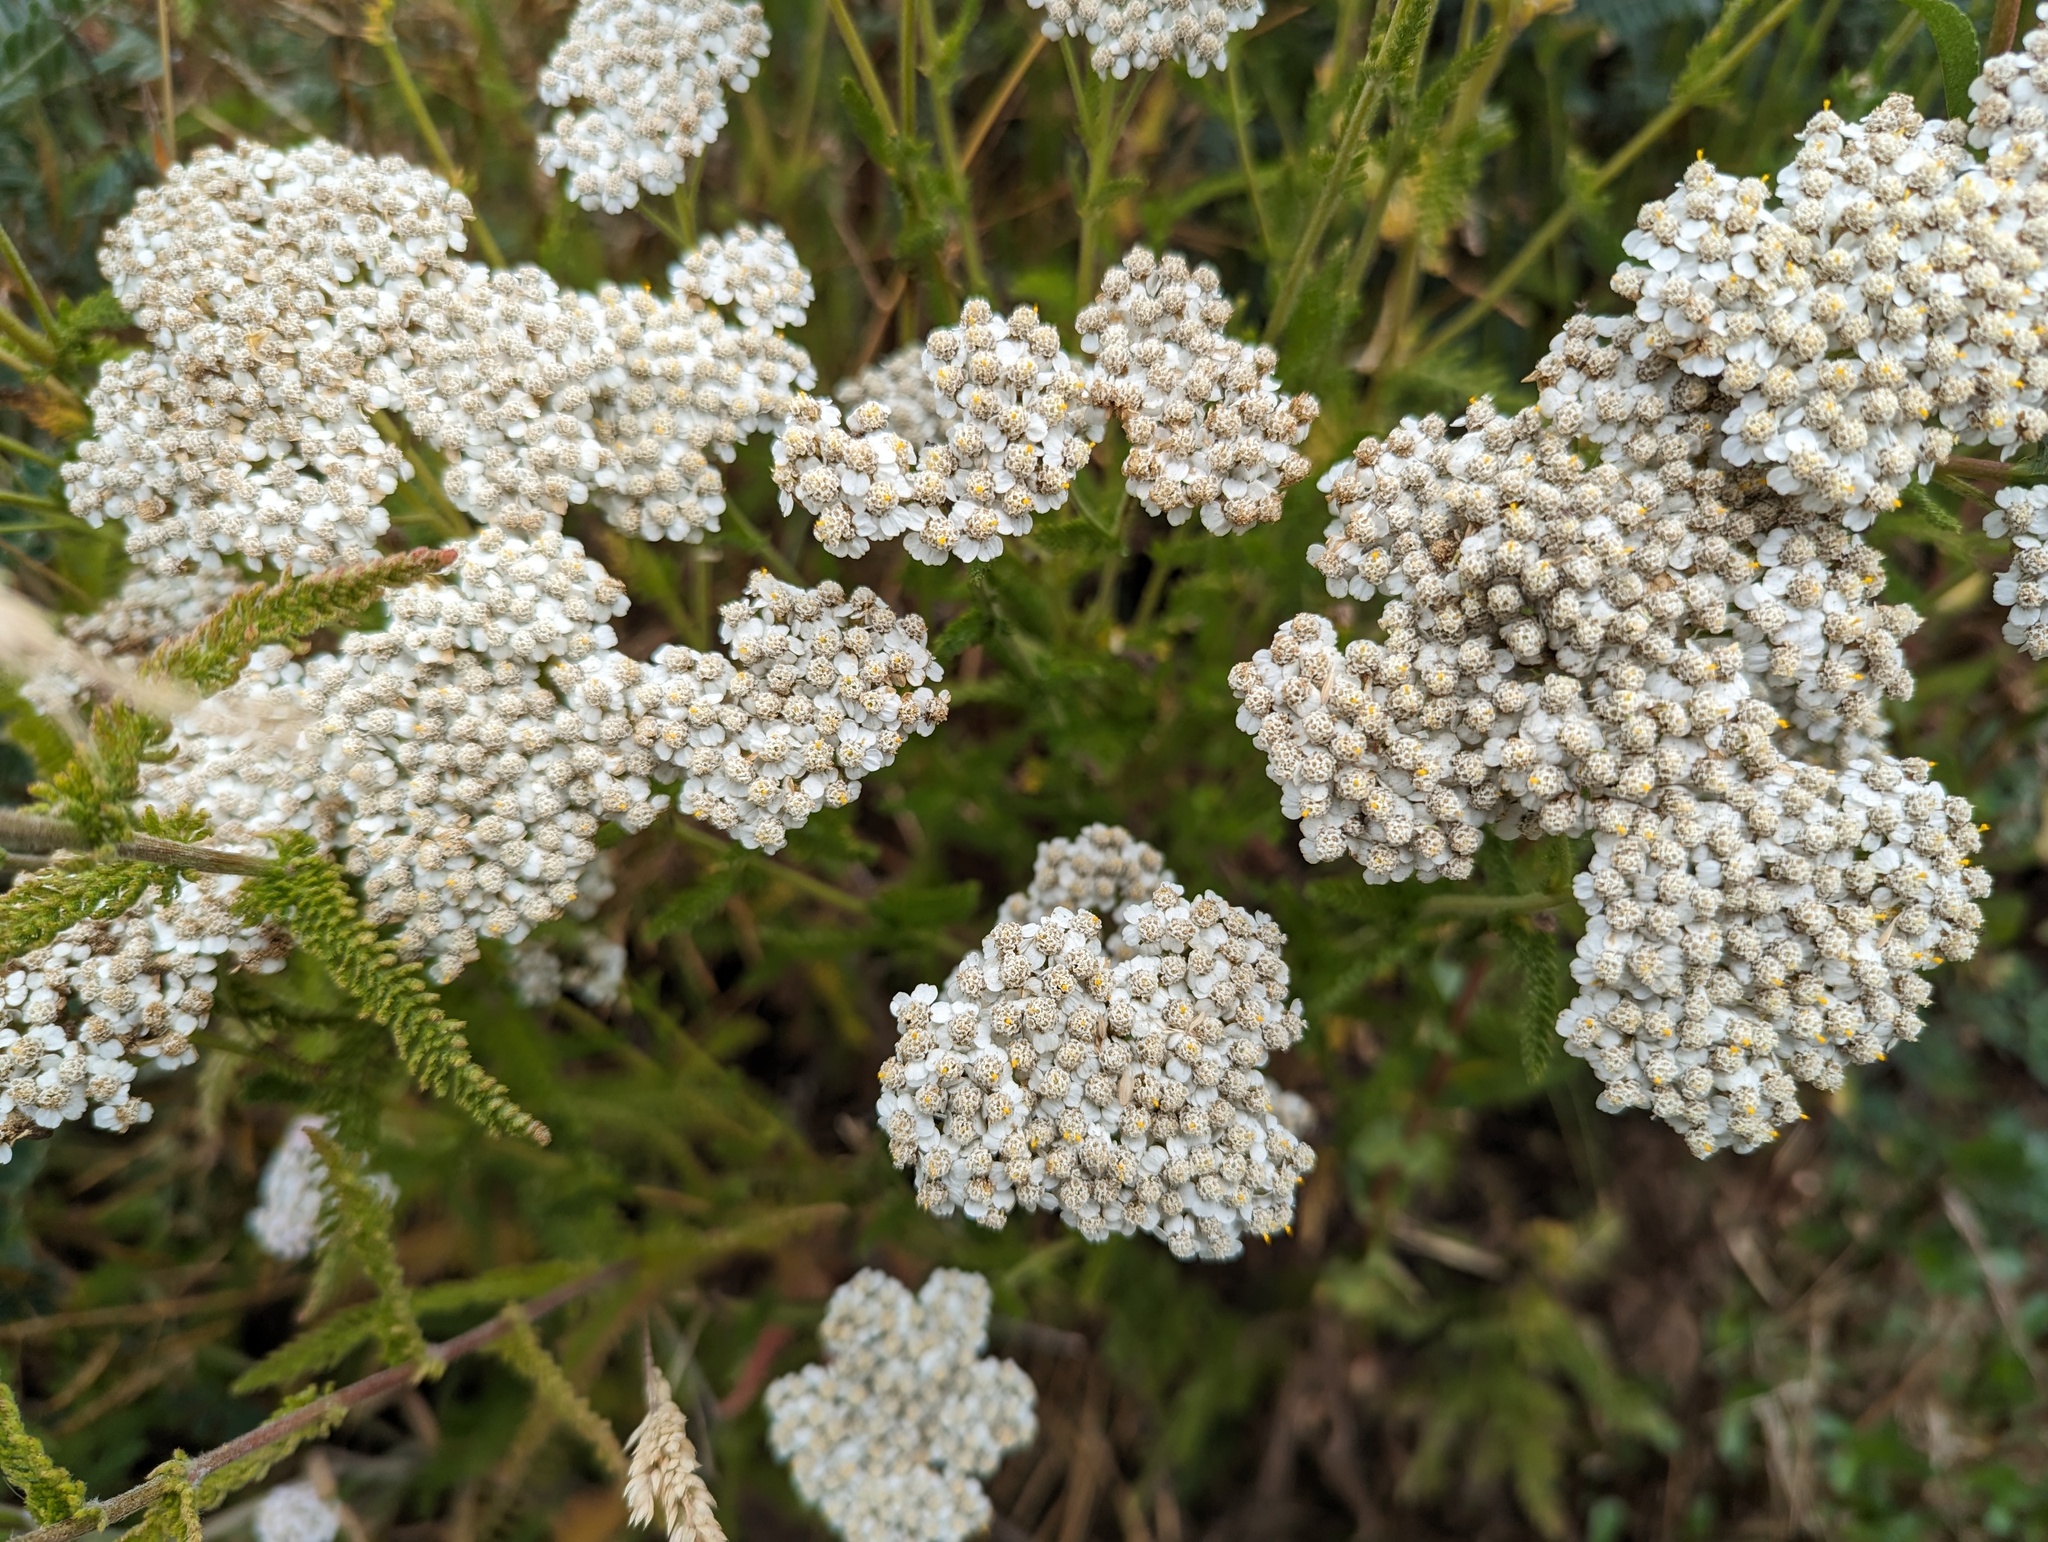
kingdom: Plantae
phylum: Tracheophyta
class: Magnoliopsida
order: Asterales
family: Asteraceae
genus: Achillea
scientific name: Achillea millefolium
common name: Yarrow
